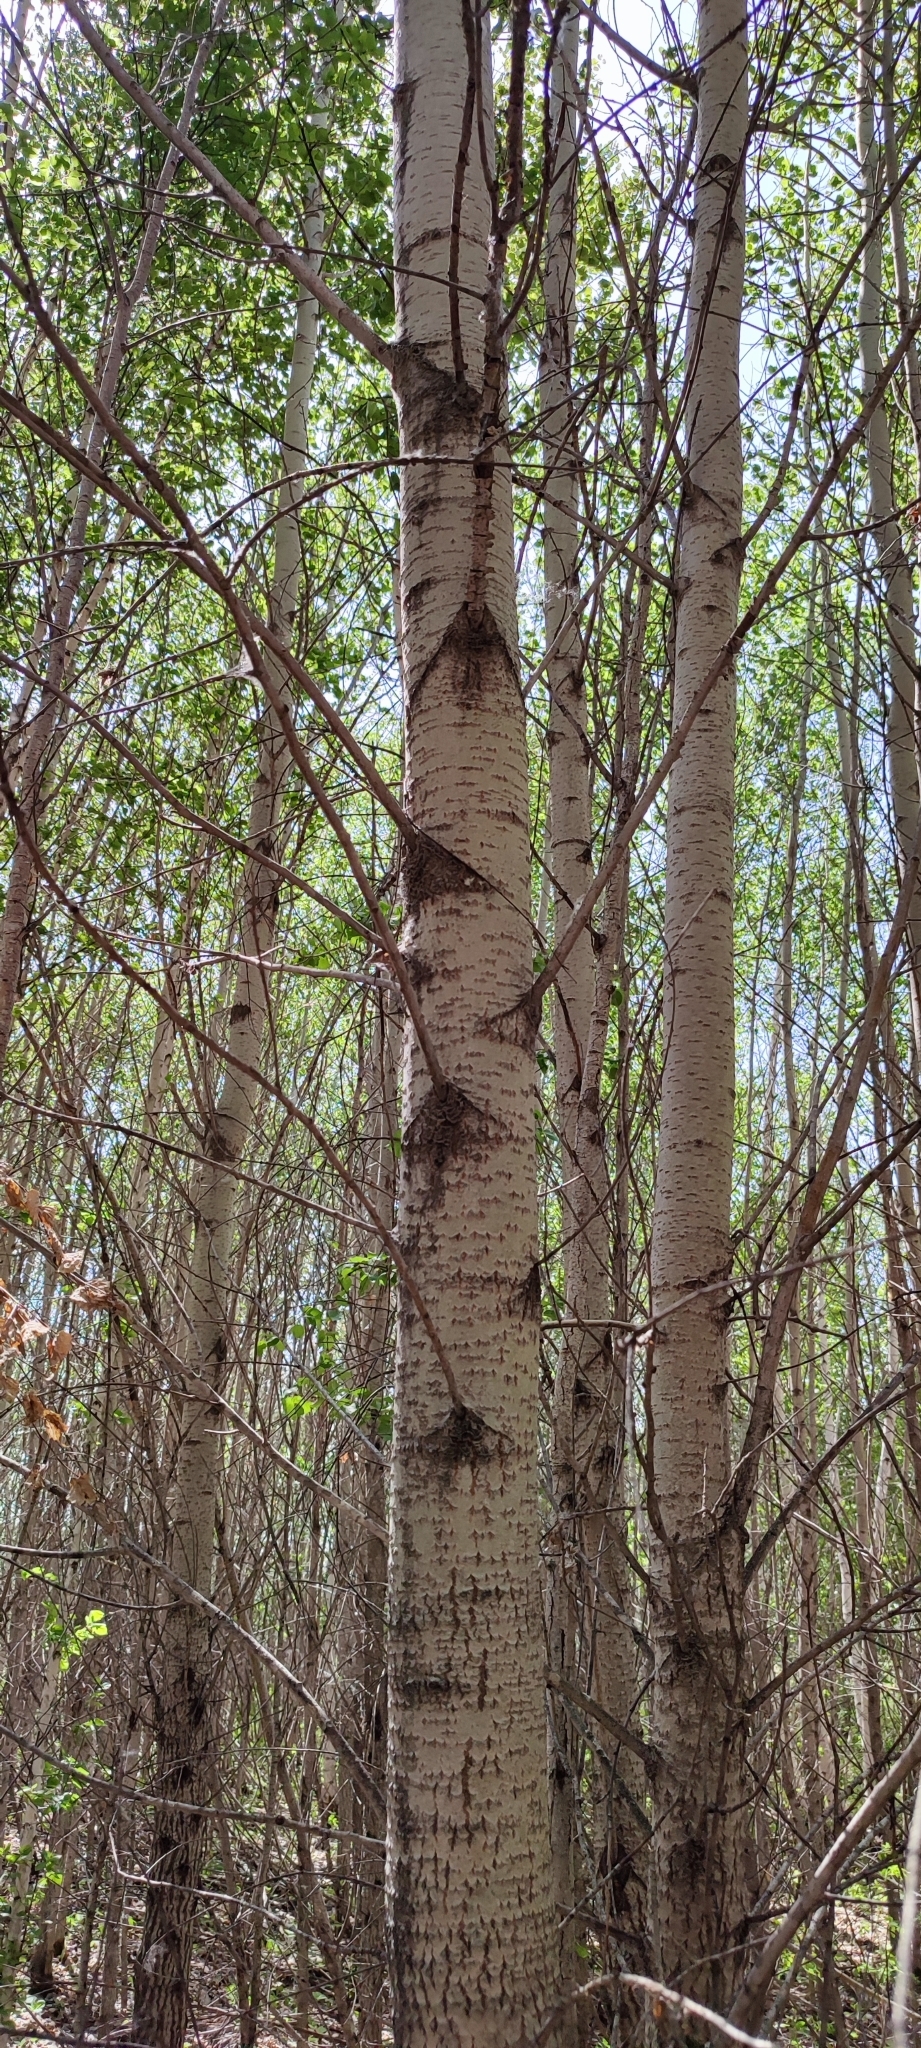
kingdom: Plantae
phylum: Tracheophyta
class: Magnoliopsida
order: Malpighiales
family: Salicaceae
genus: Populus
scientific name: Populus tremula
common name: European aspen
